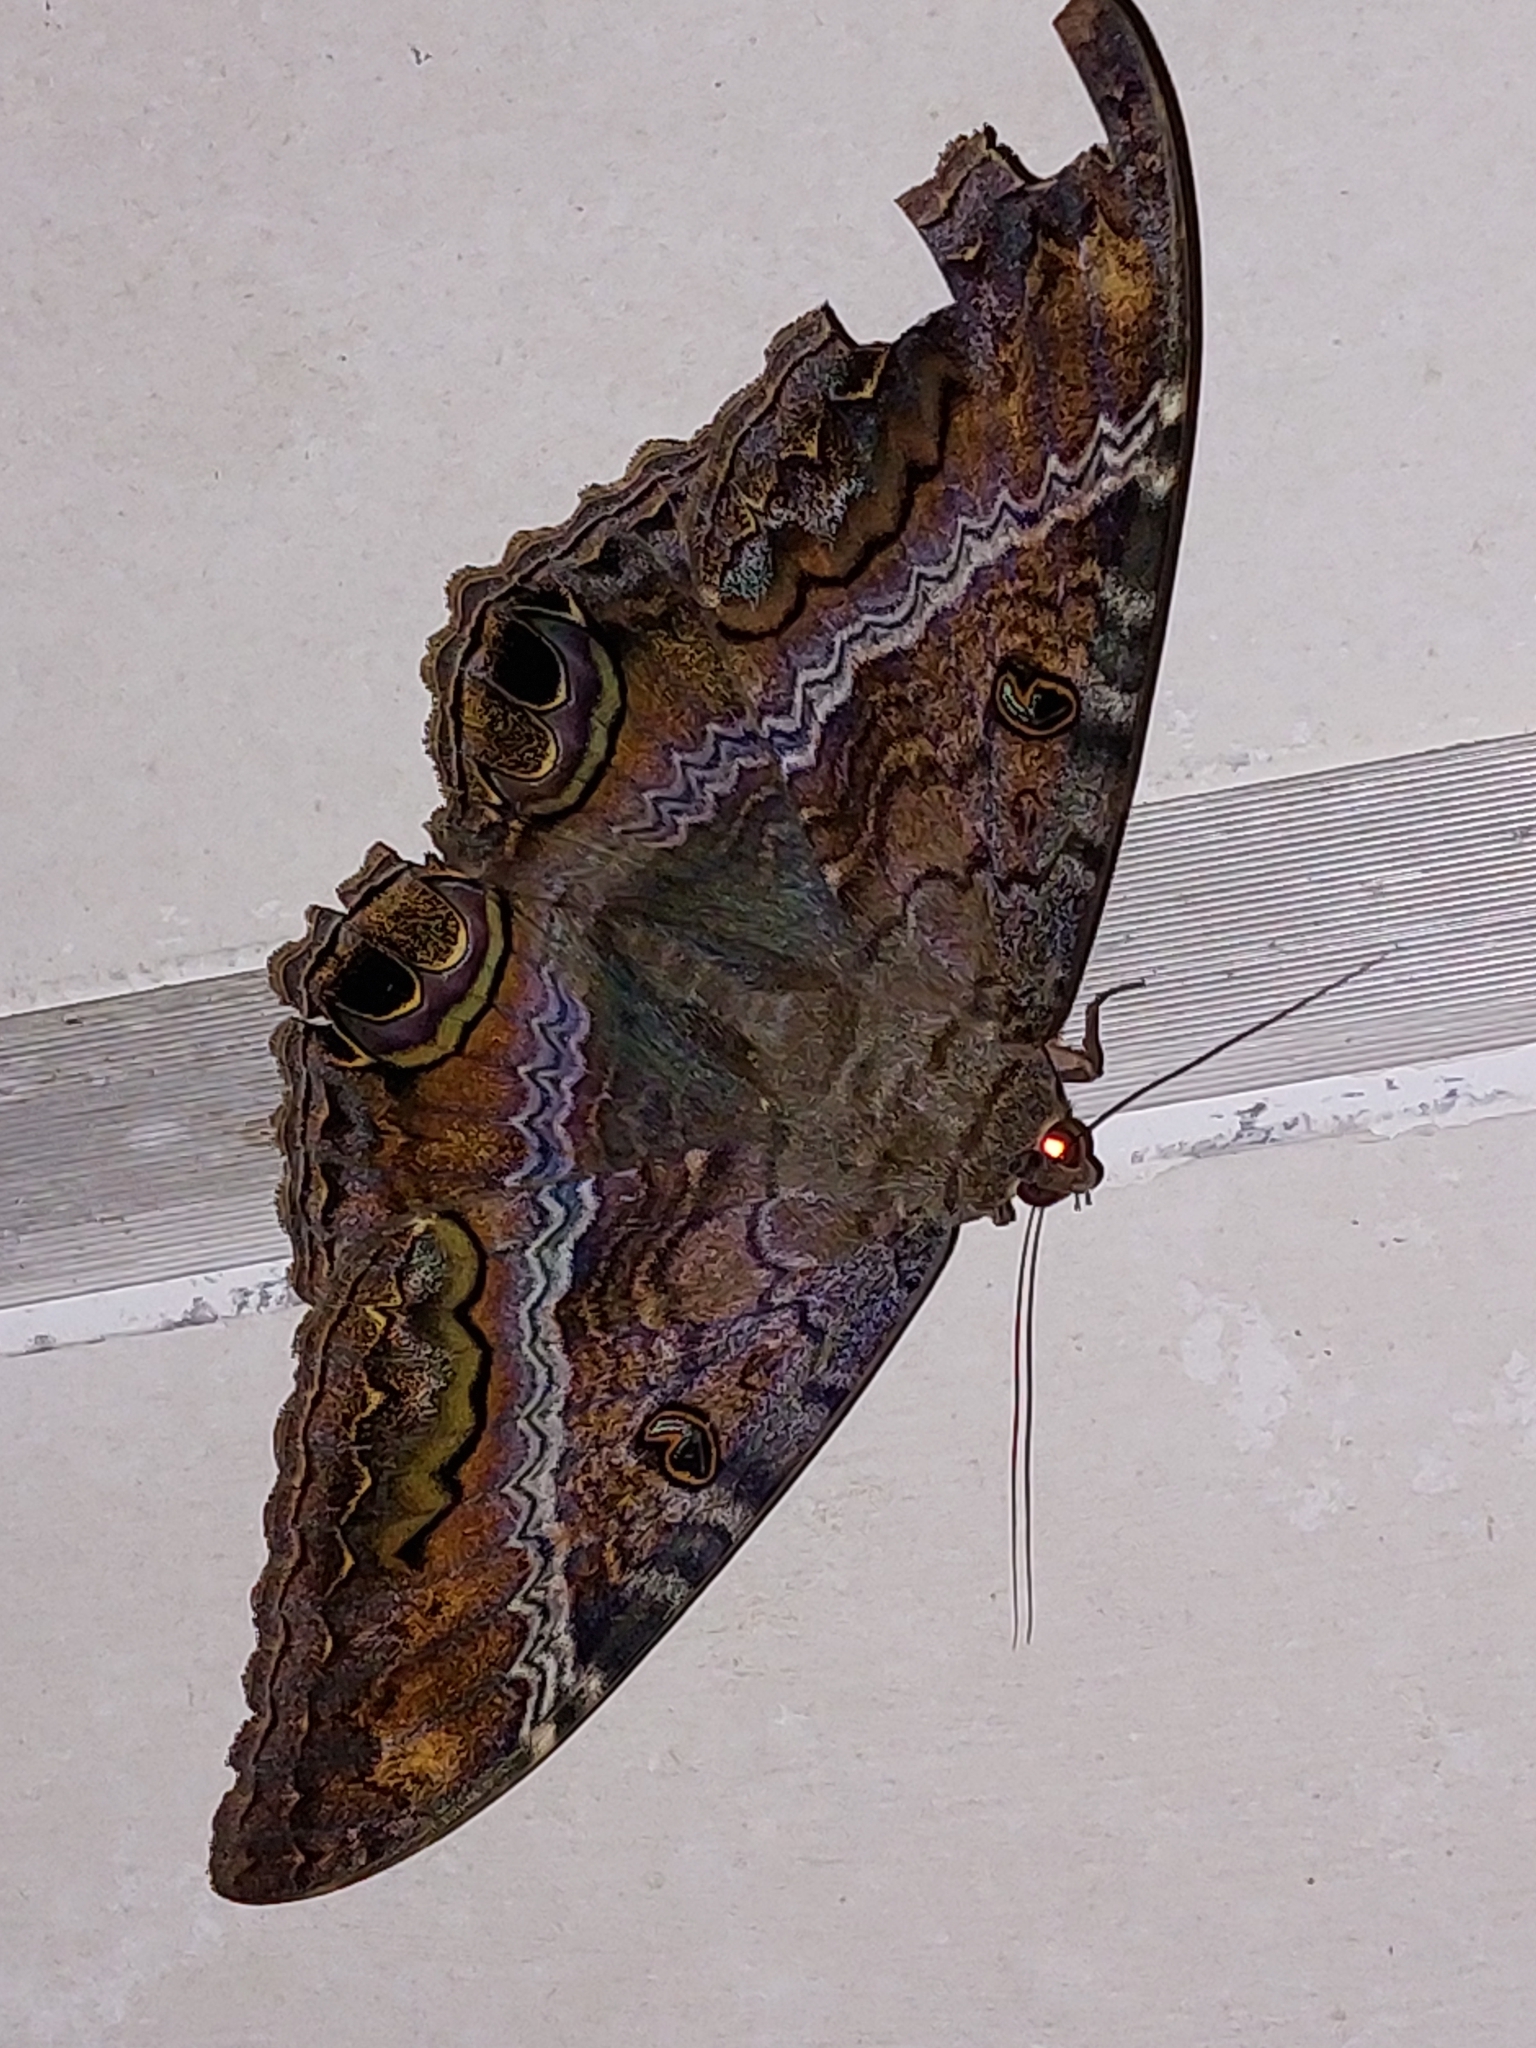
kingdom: Animalia
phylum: Arthropoda
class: Insecta
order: Lepidoptera
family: Erebidae
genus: Ascalapha
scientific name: Ascalapha odorata
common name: Black witch
